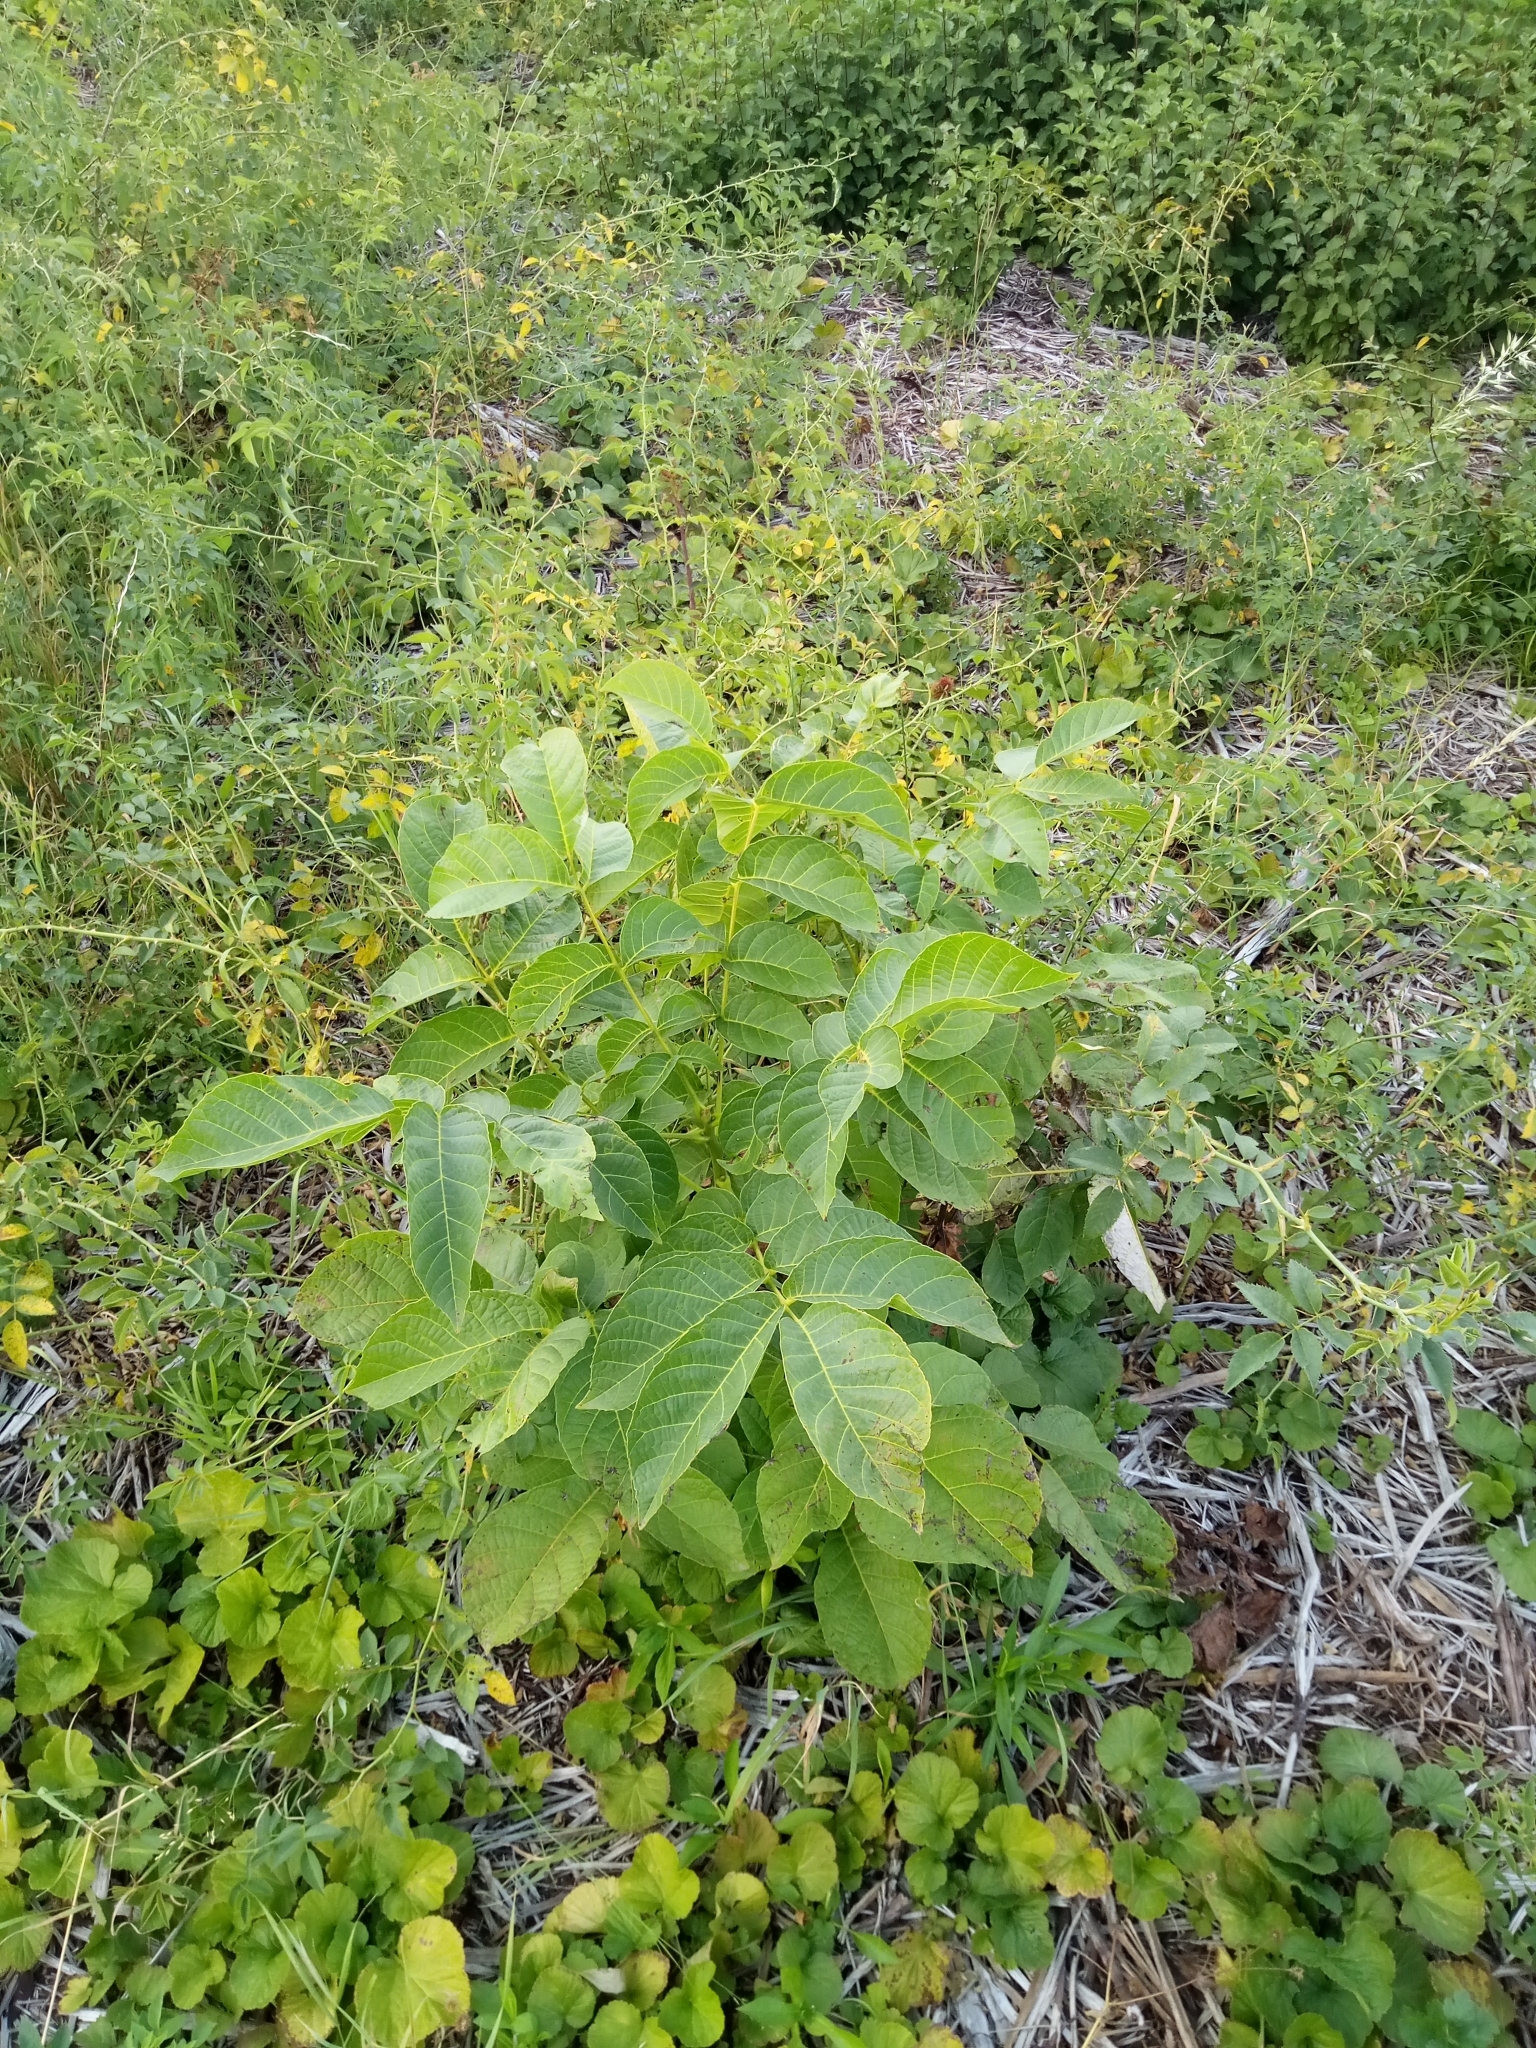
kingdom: Plantae
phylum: Tracheophyta
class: Magnoliopsida
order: Fagales
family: Juglandaceae
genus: Juglans
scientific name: Juglans regia
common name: Walnut
